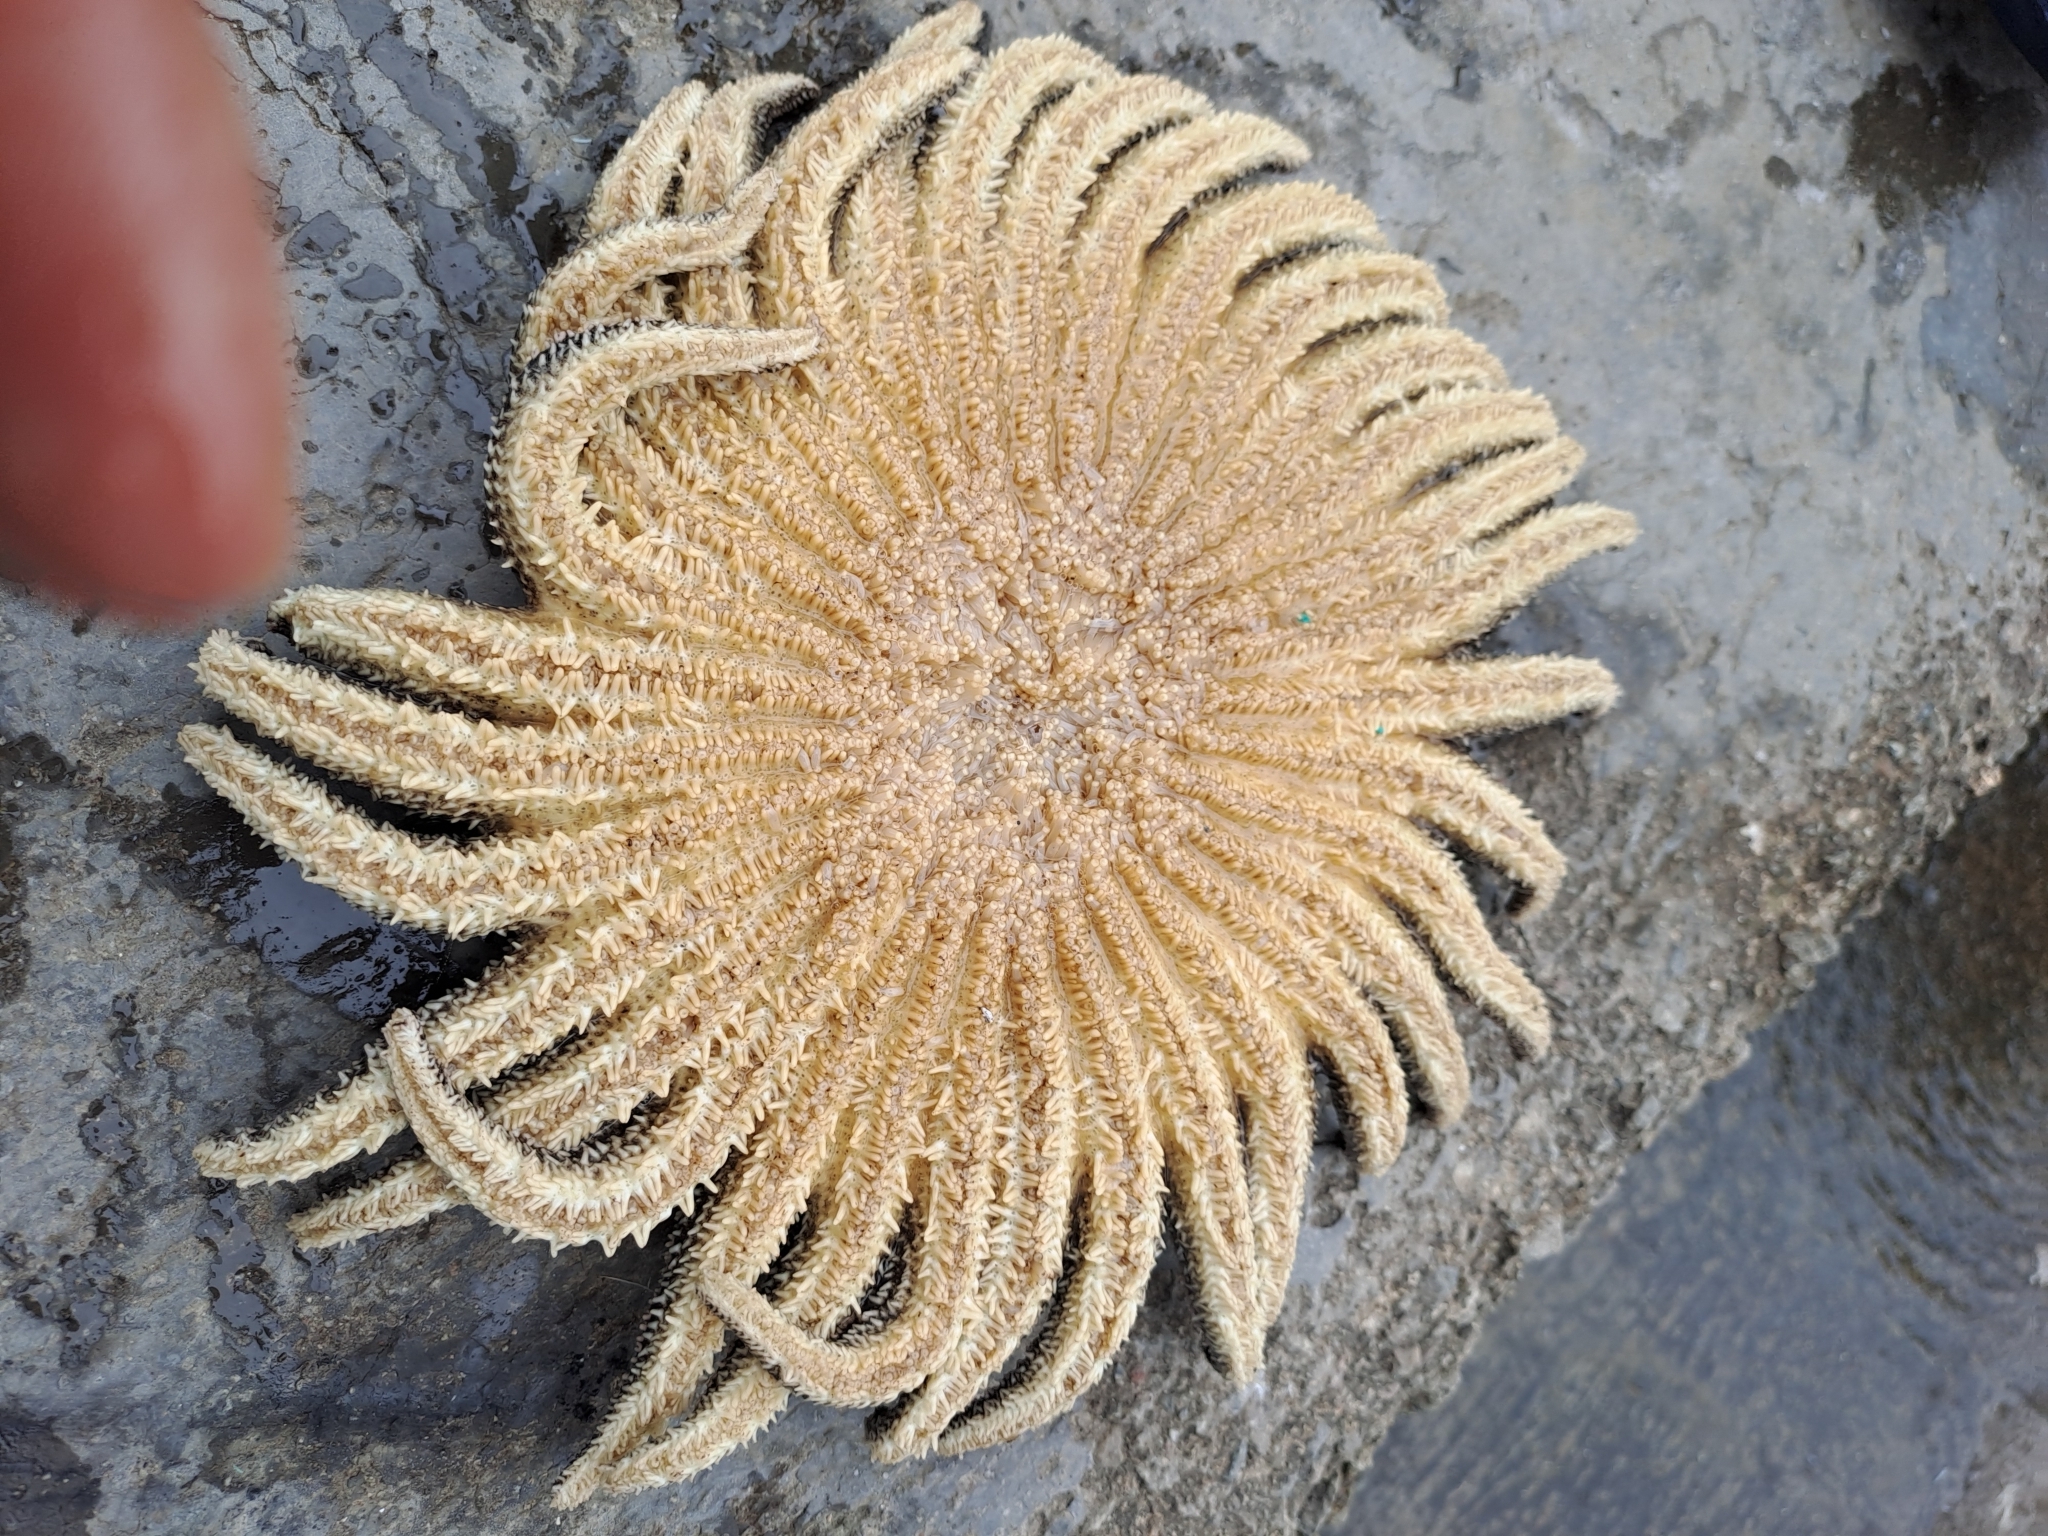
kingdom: Animalia
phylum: Echinodermata
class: Asteroidea
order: Forcipulatida
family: Heliasteridae
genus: Heliaster
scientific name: Heliaster helianthus
